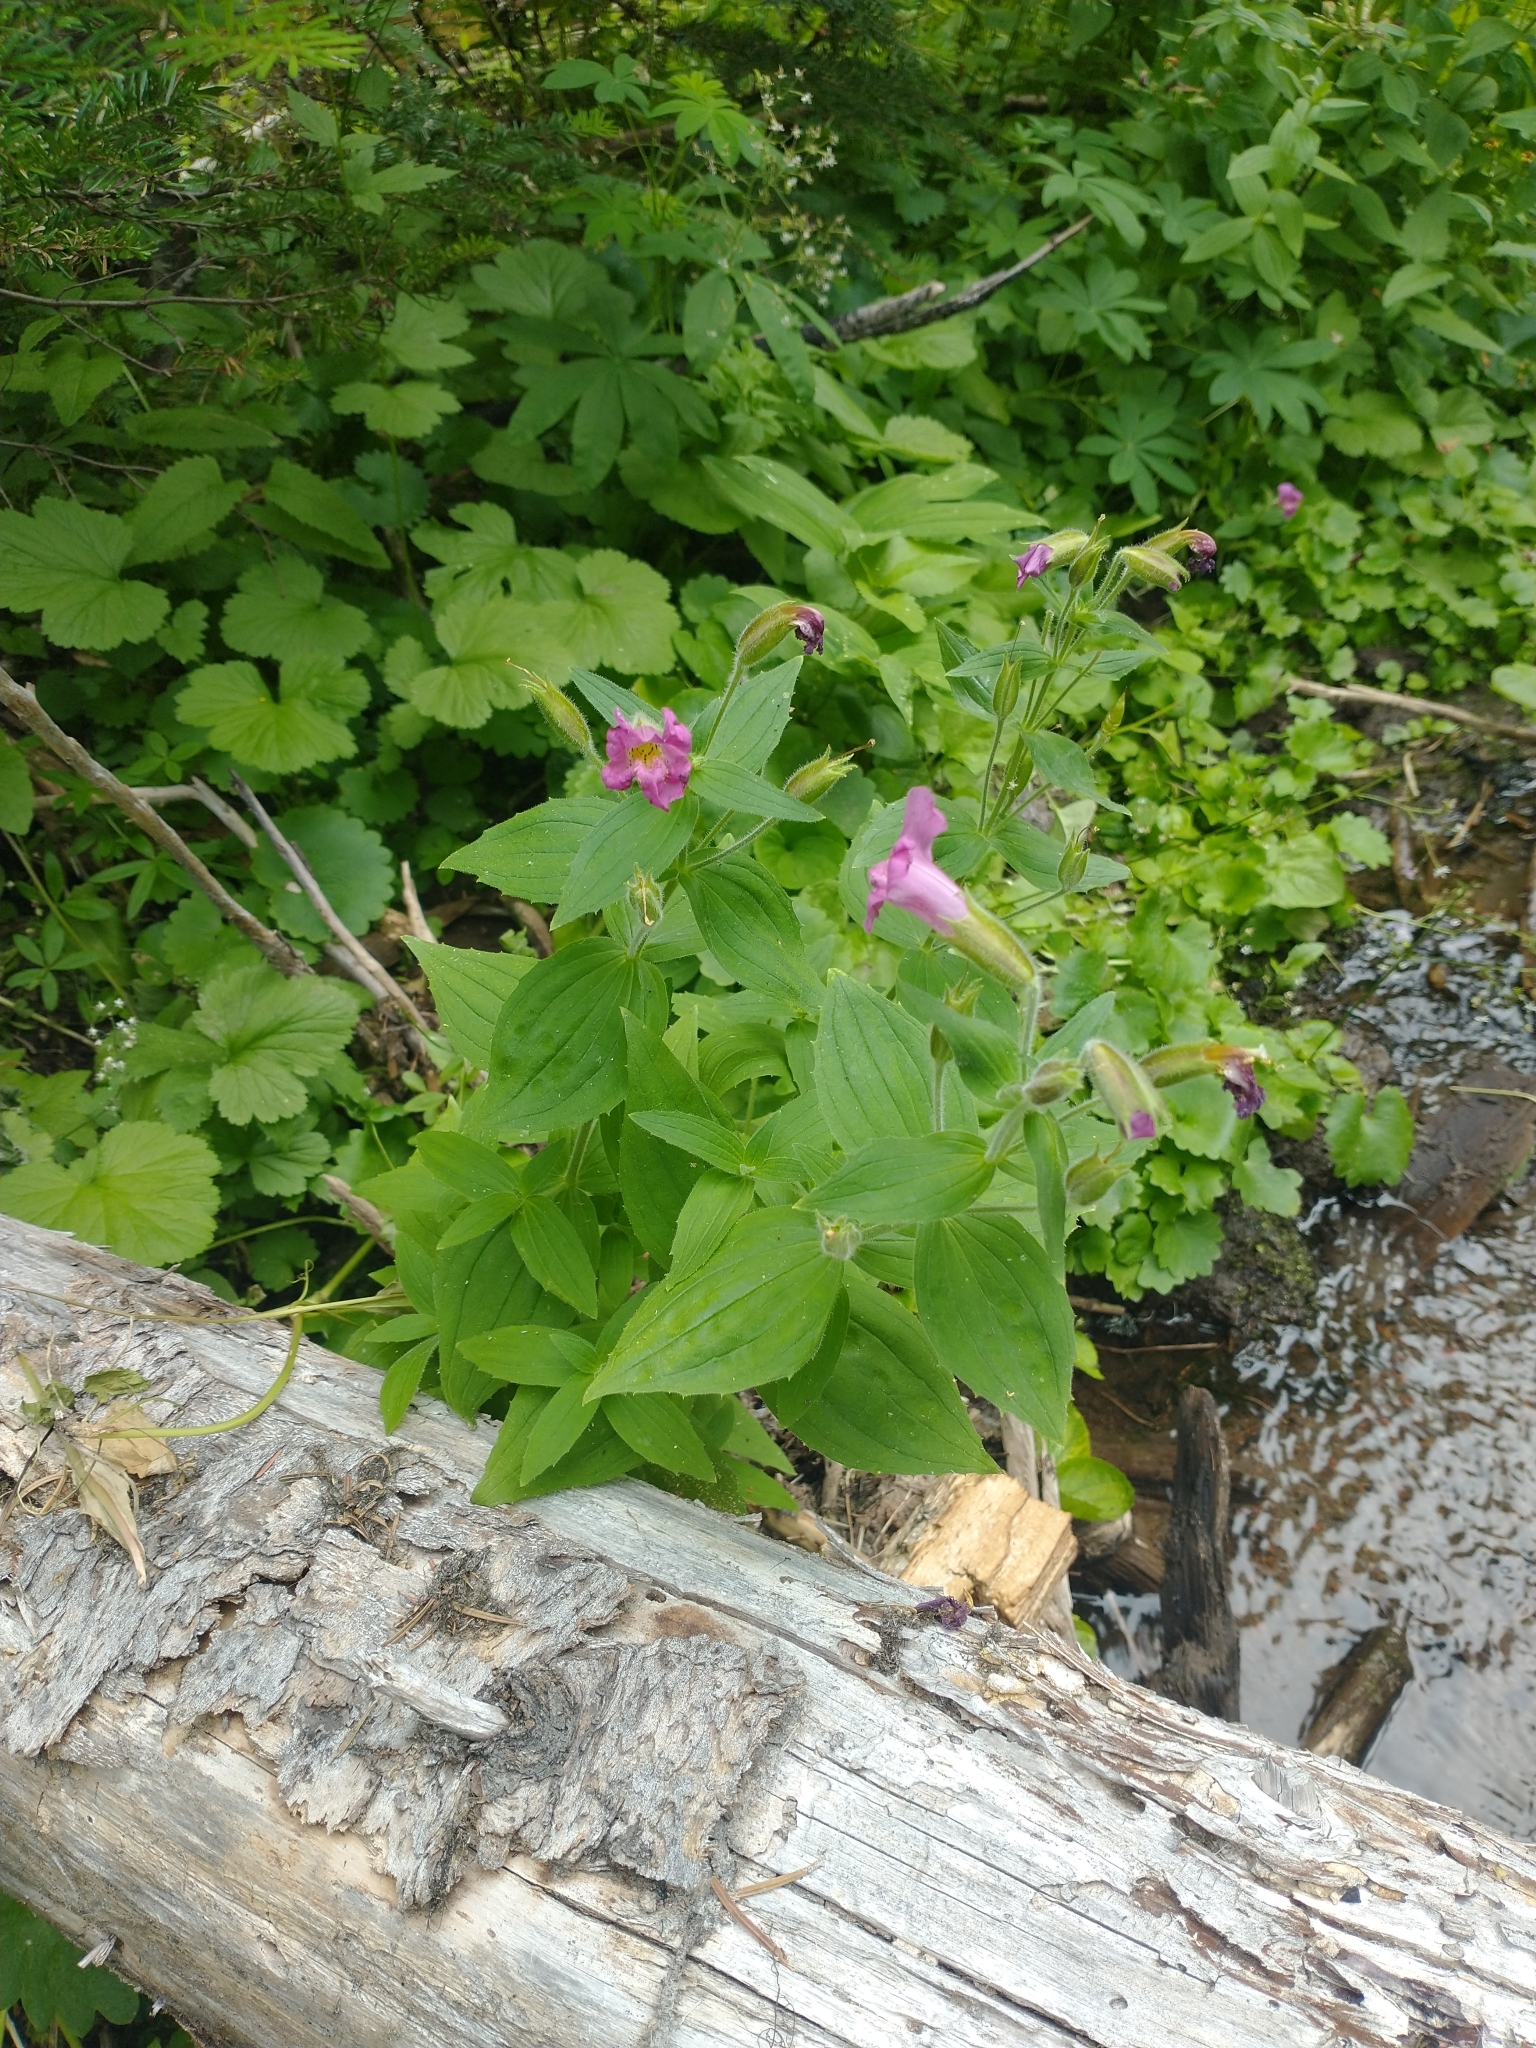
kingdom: Plantae
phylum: Tracheophyta
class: Magnoliopsida
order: Lamiales
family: Phrymaceae
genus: Erythranthe
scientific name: Erythranthe lewisii
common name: Lewis's monkey-flower
